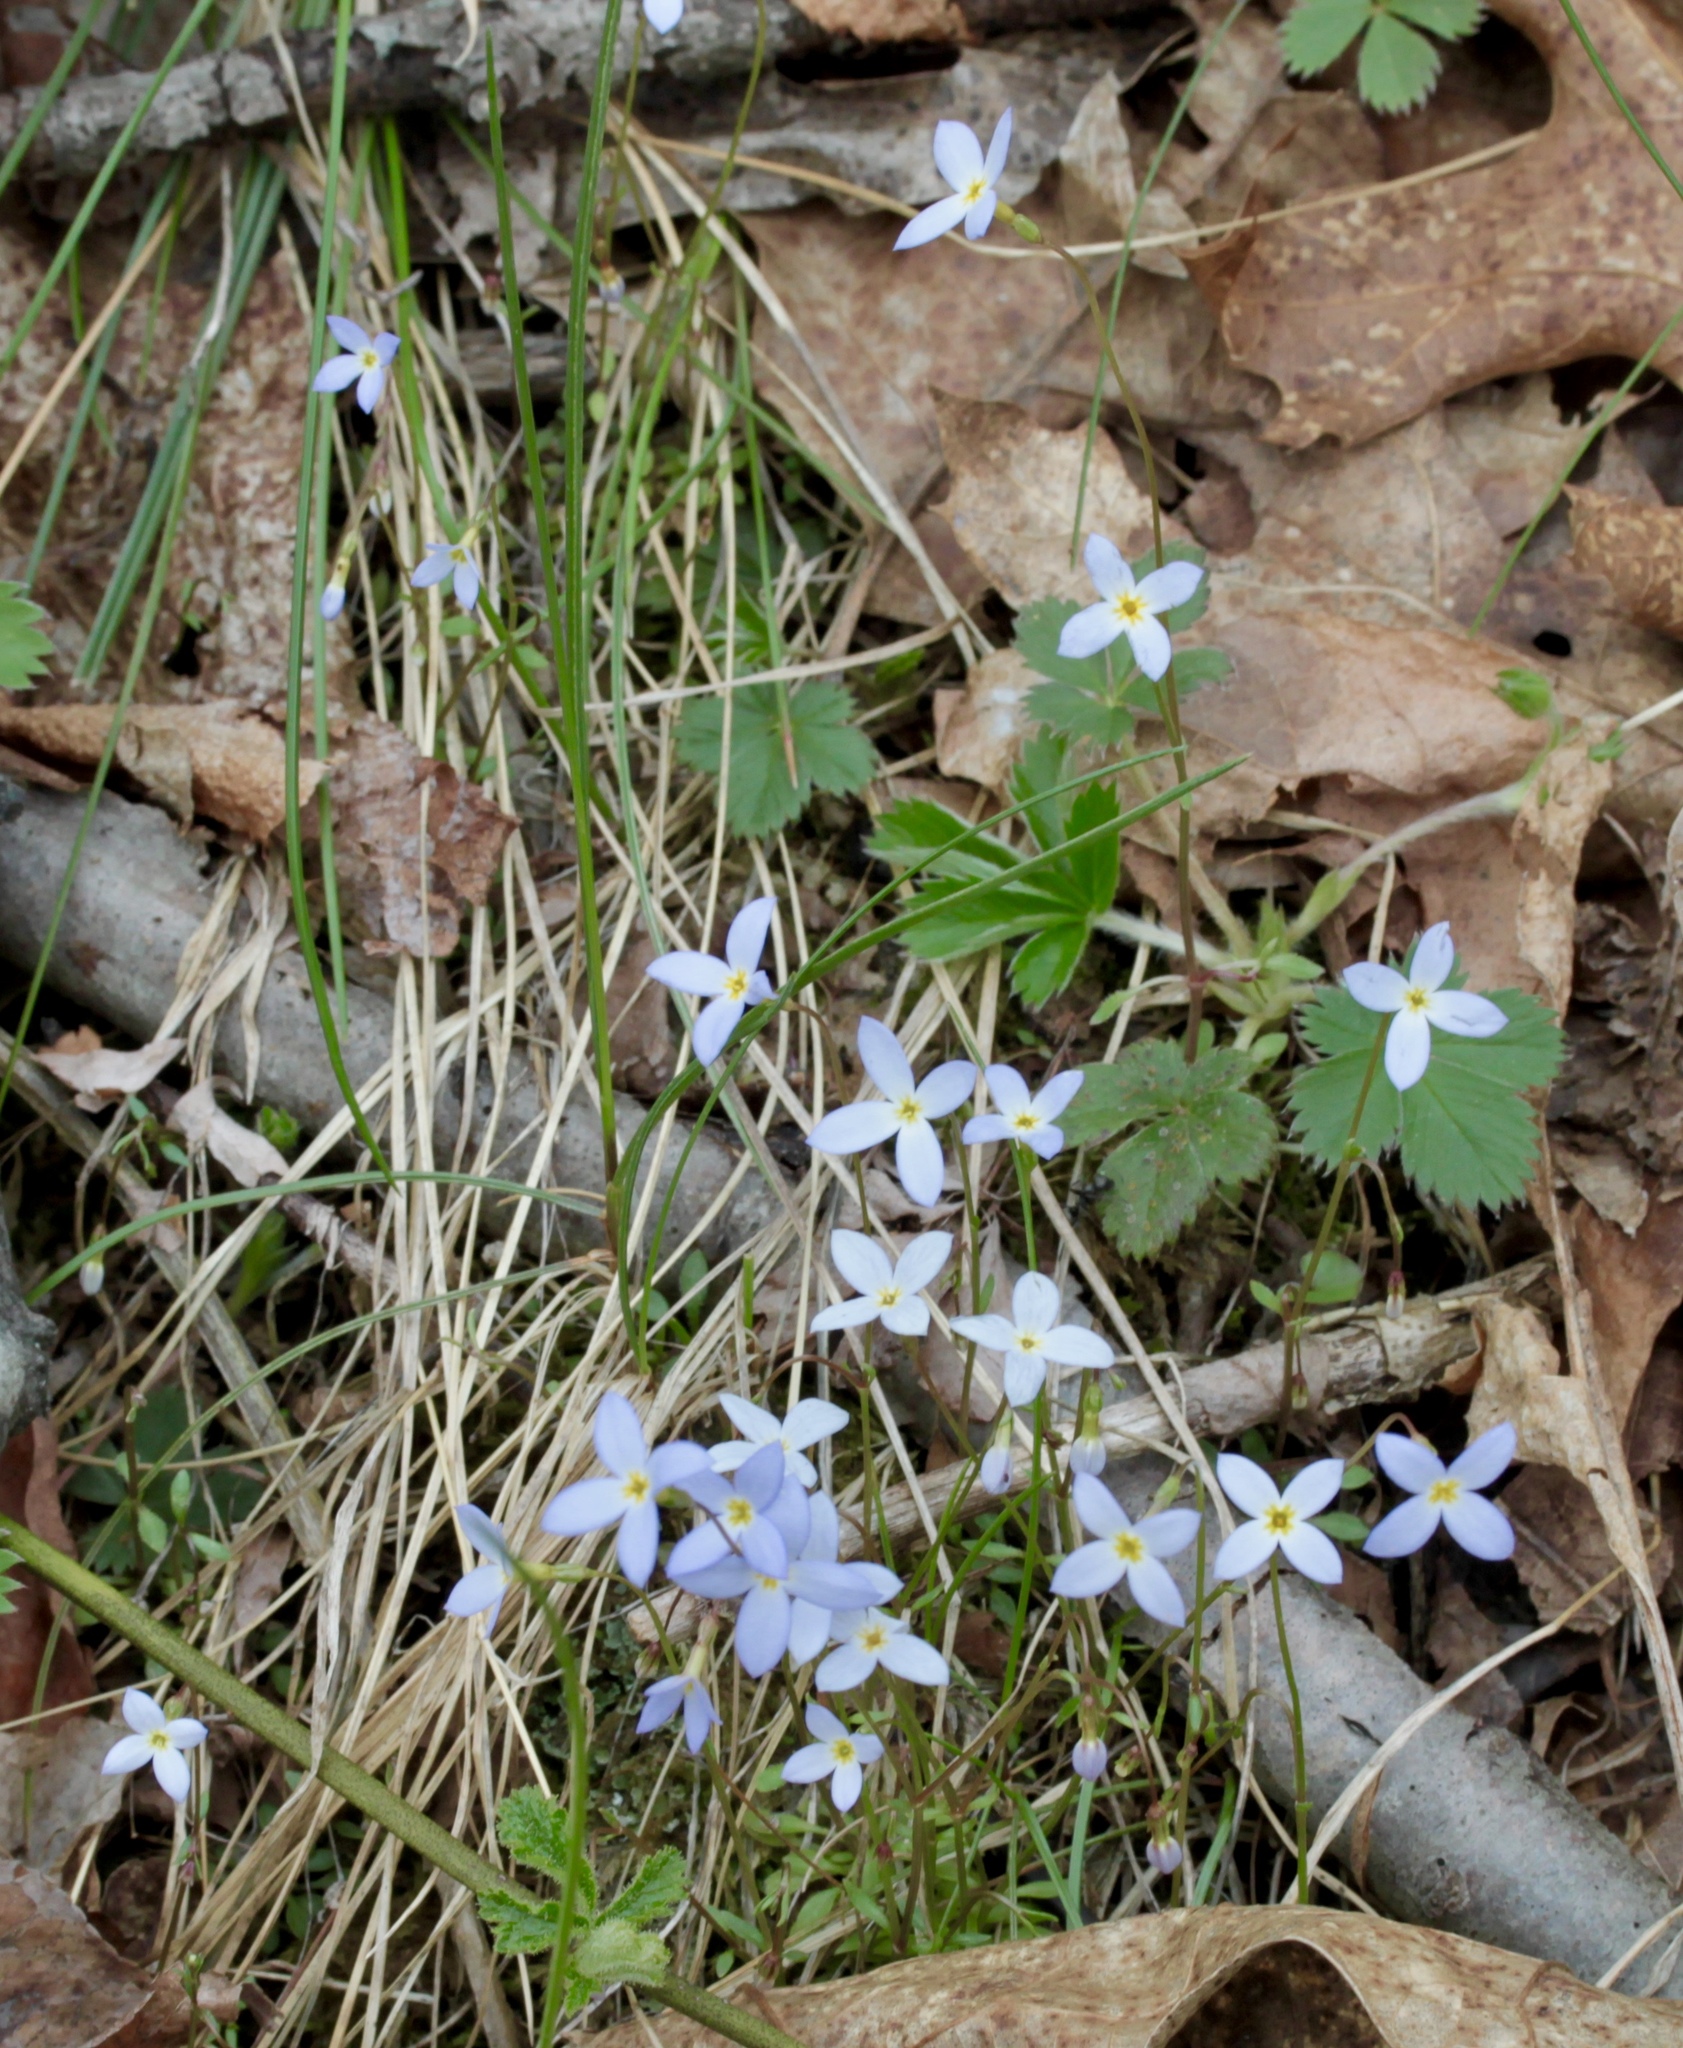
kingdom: Plantae
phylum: Tracheophyta
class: Magnoliopsida
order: Gentianales
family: Rubiaceae
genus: Houstonia
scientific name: Houstonia caerulea
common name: Bluets
